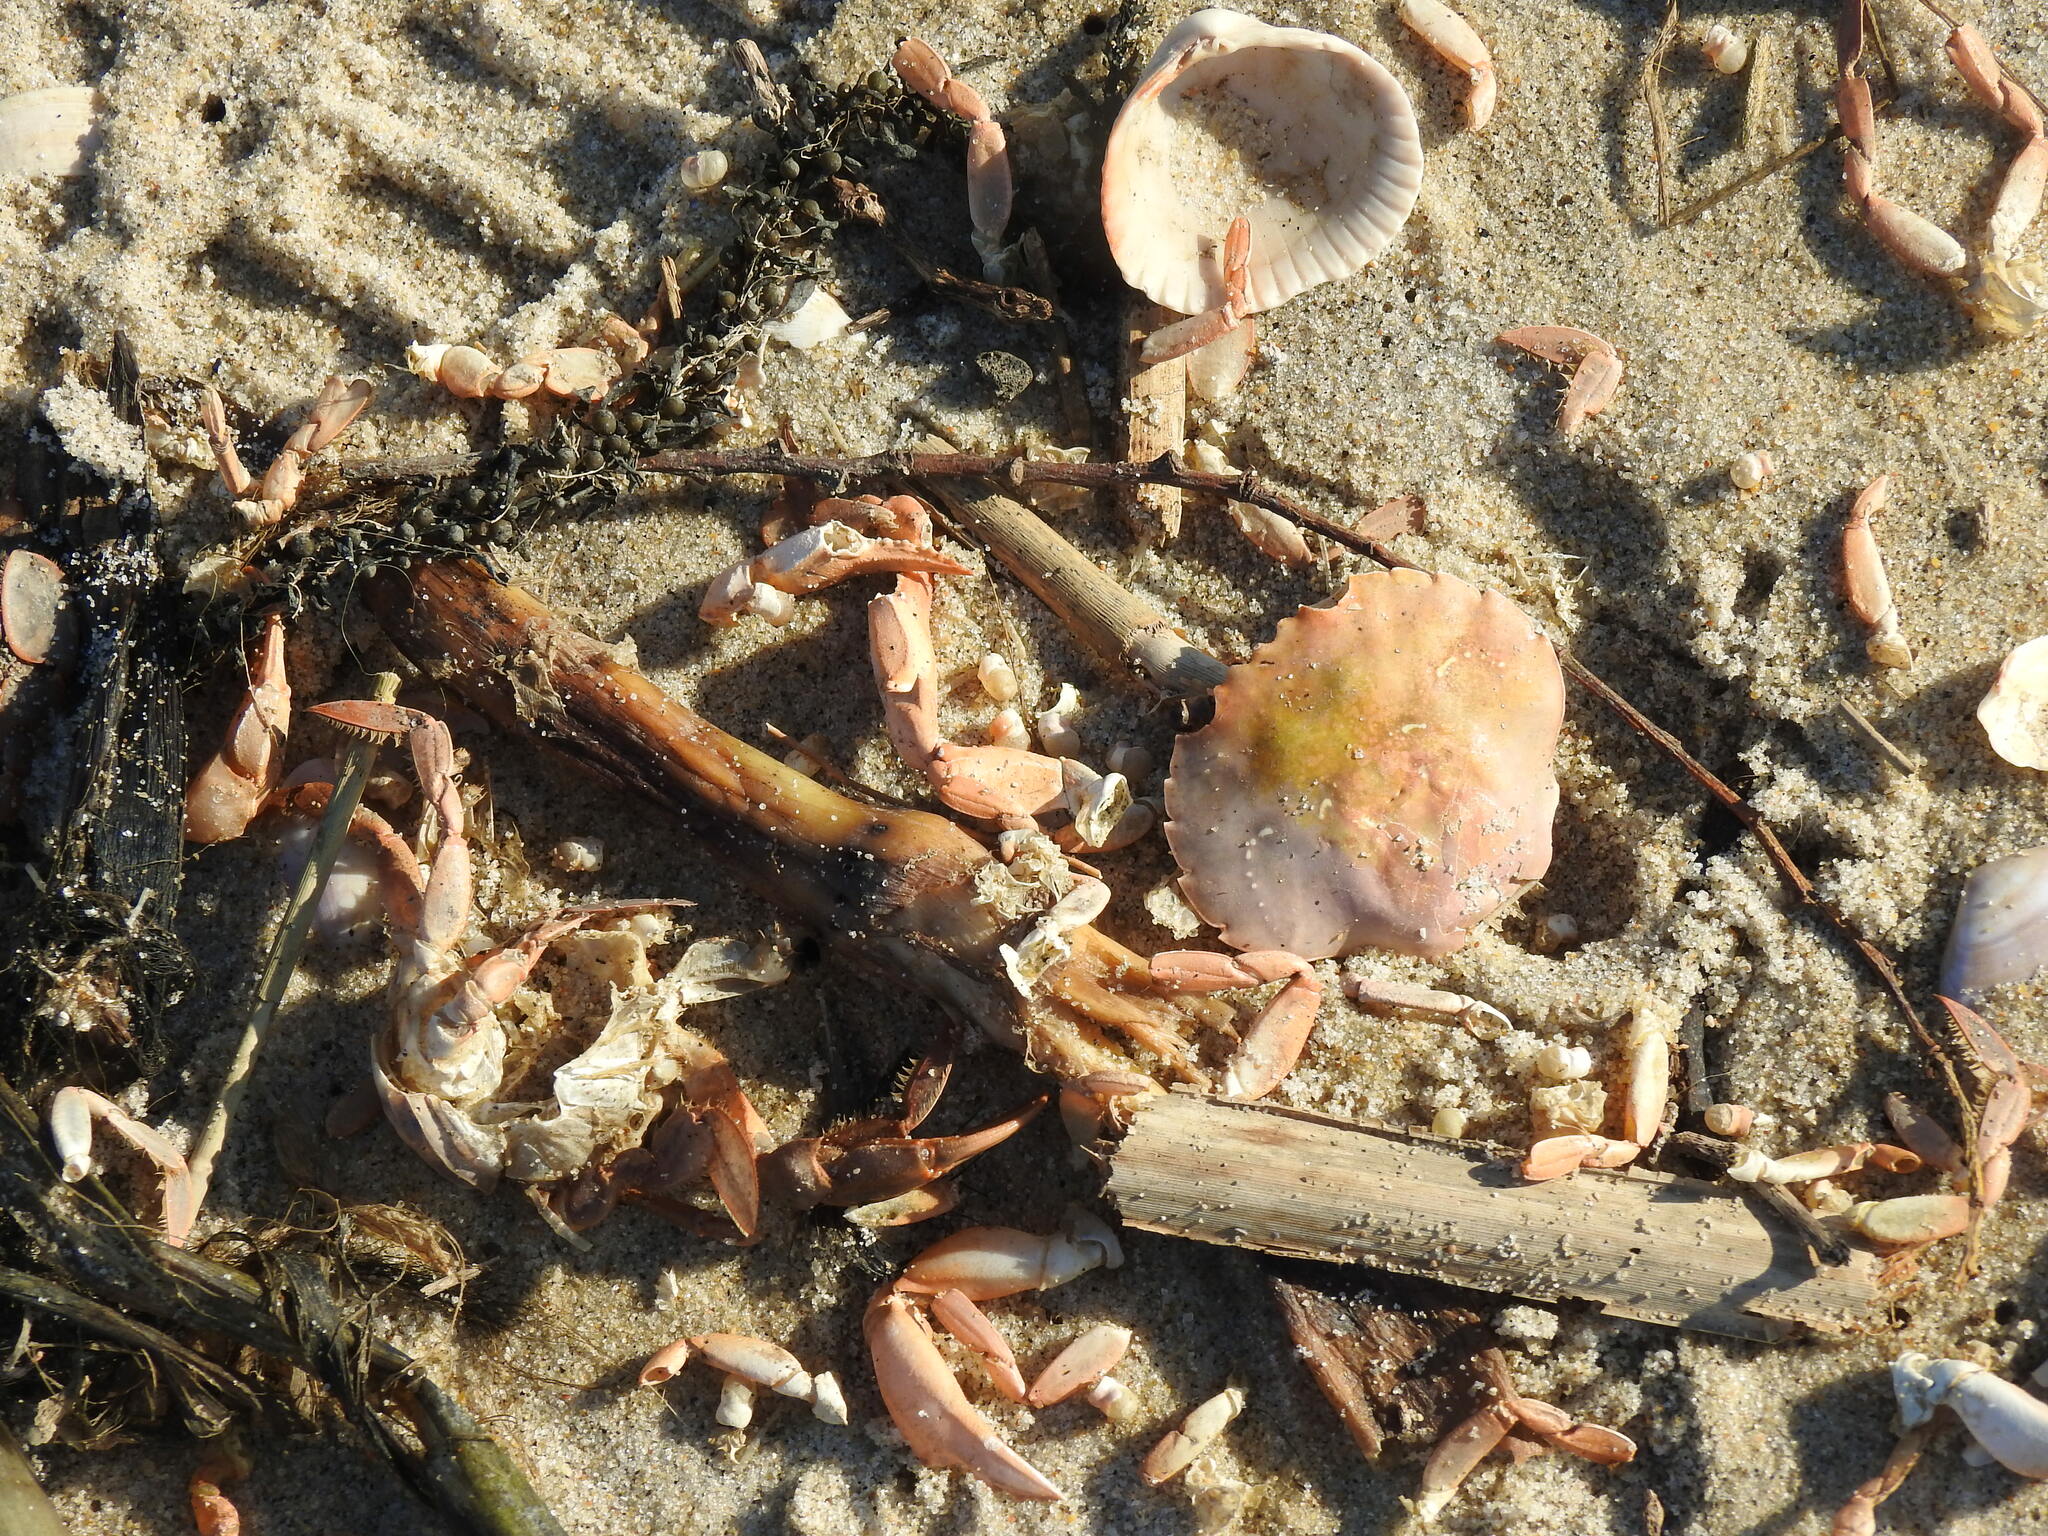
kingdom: Animalia
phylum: Arthropoda
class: Malacostraca
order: Decapoda
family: Polybiidae
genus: Polybius
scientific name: Polybius henslowii
